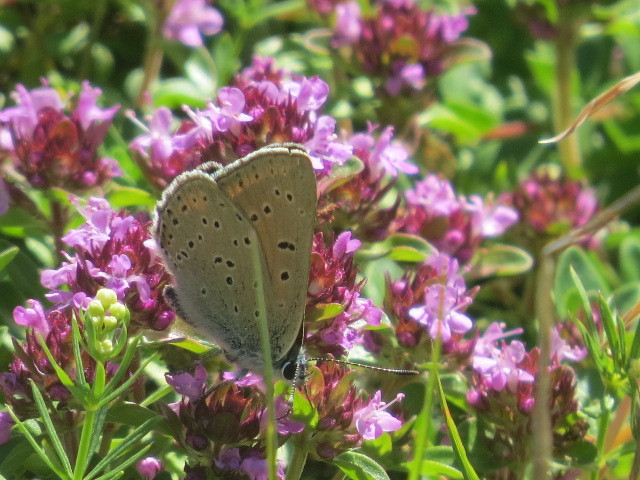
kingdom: Animalia
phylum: Arthropoda
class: Insecta
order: Lepidoptera
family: Lycaenidae
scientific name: Lycaenidae
